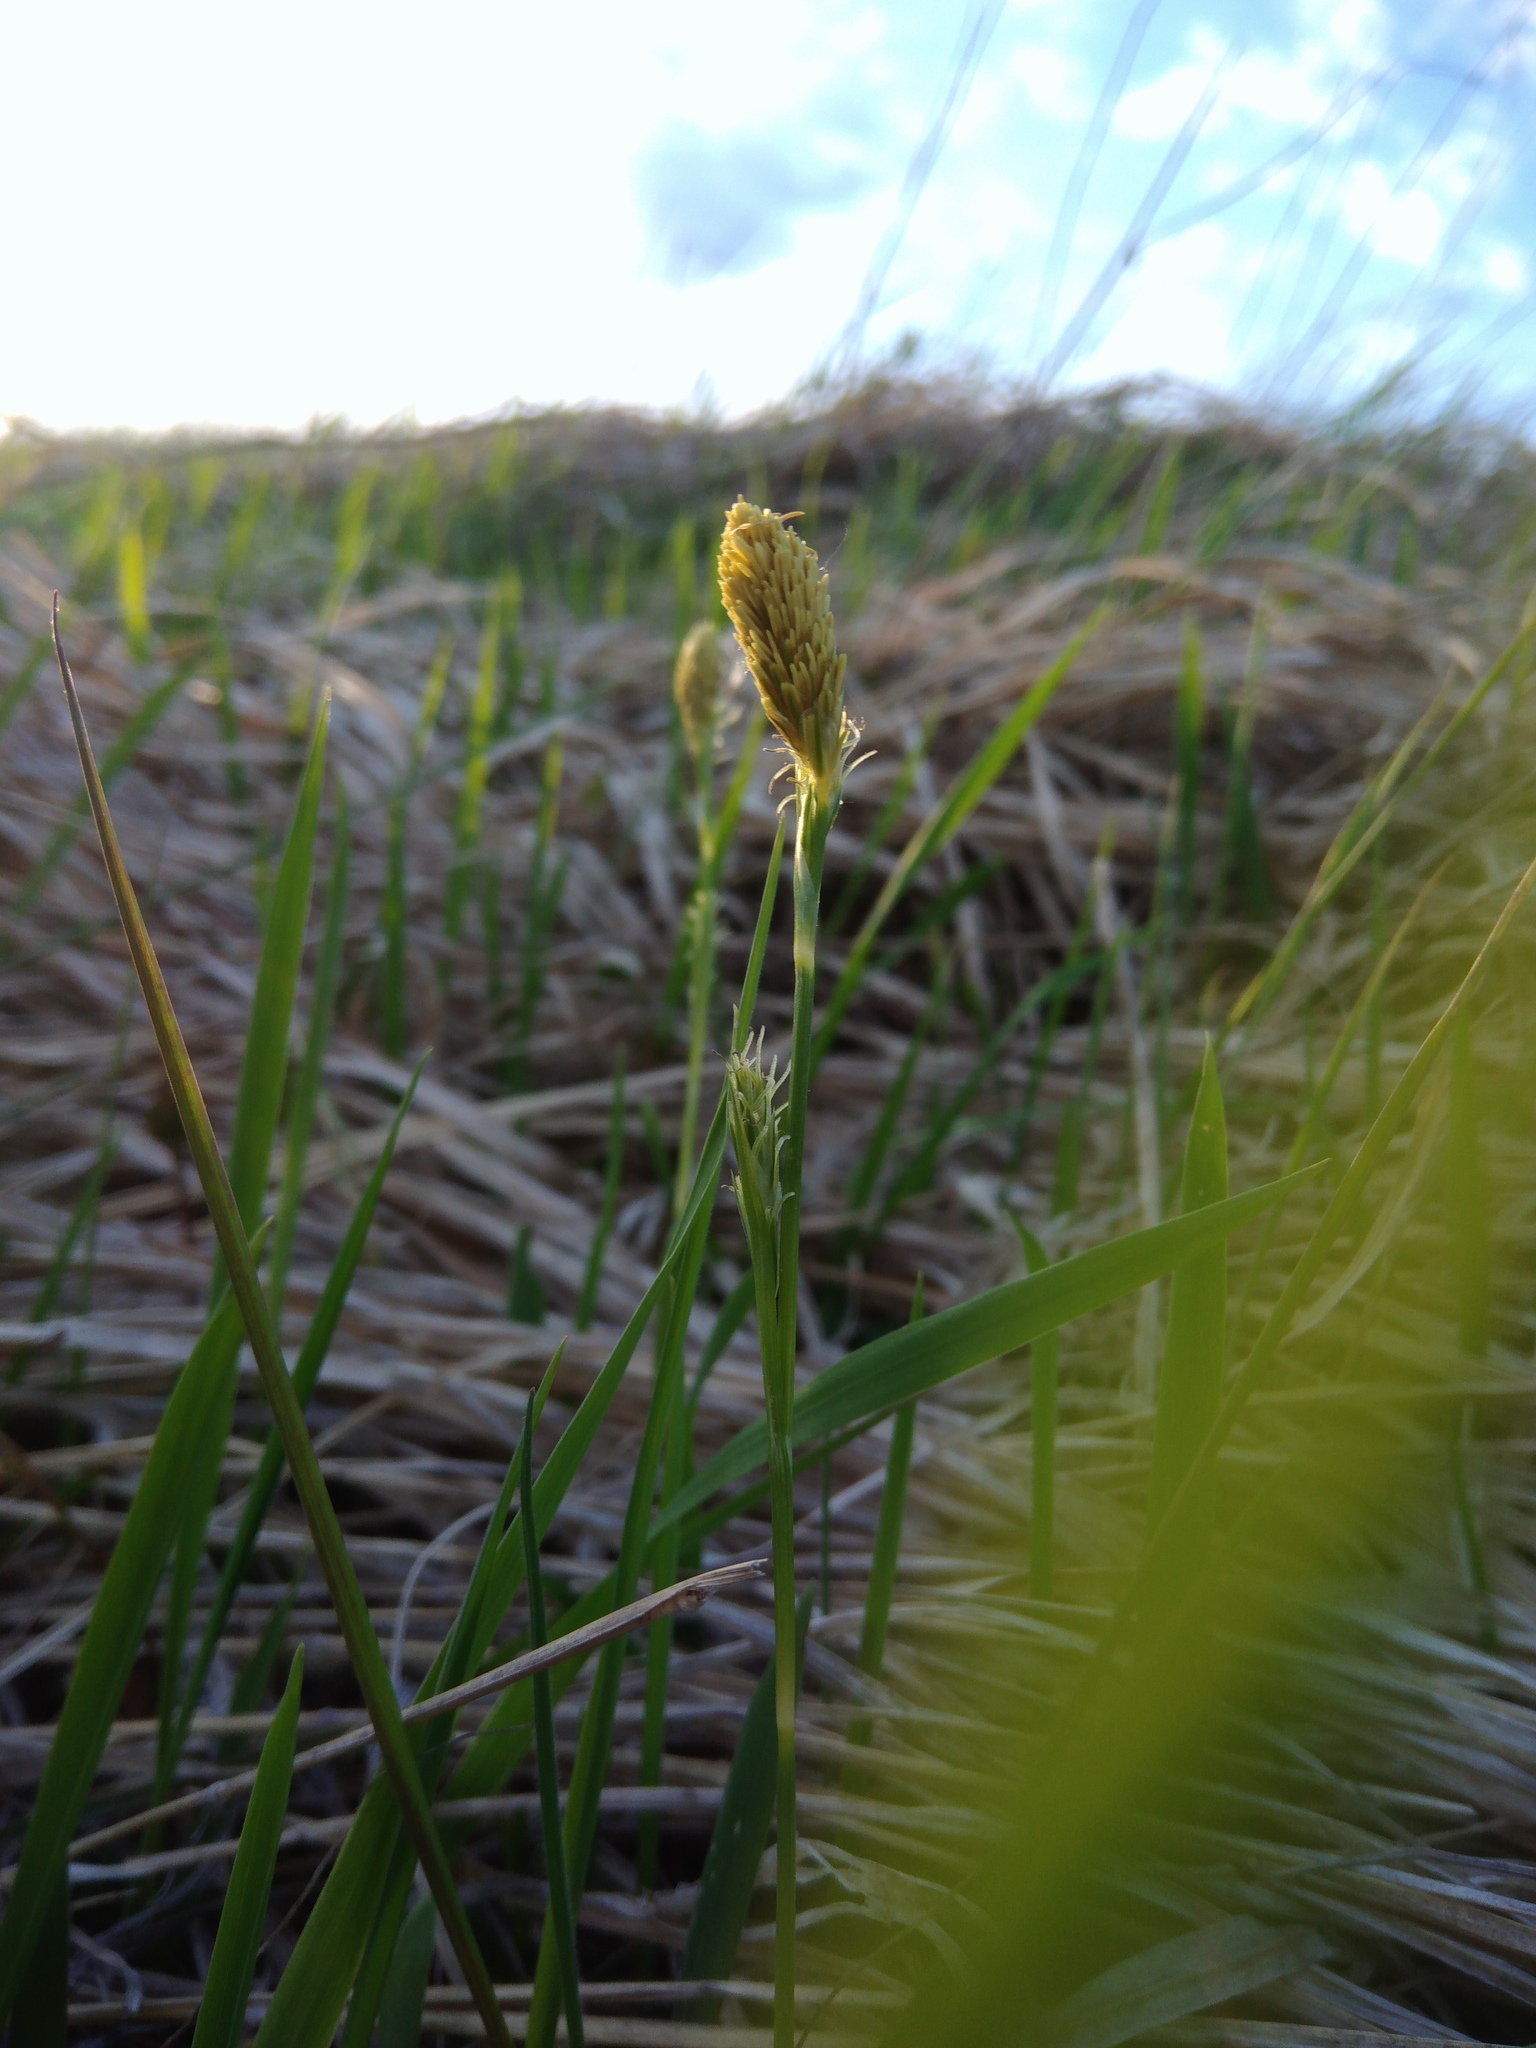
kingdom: Plantae
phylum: Tracheophyta
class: Liliopsida
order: Poales
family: Cyperaceae
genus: Carex
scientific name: Carex michelii
